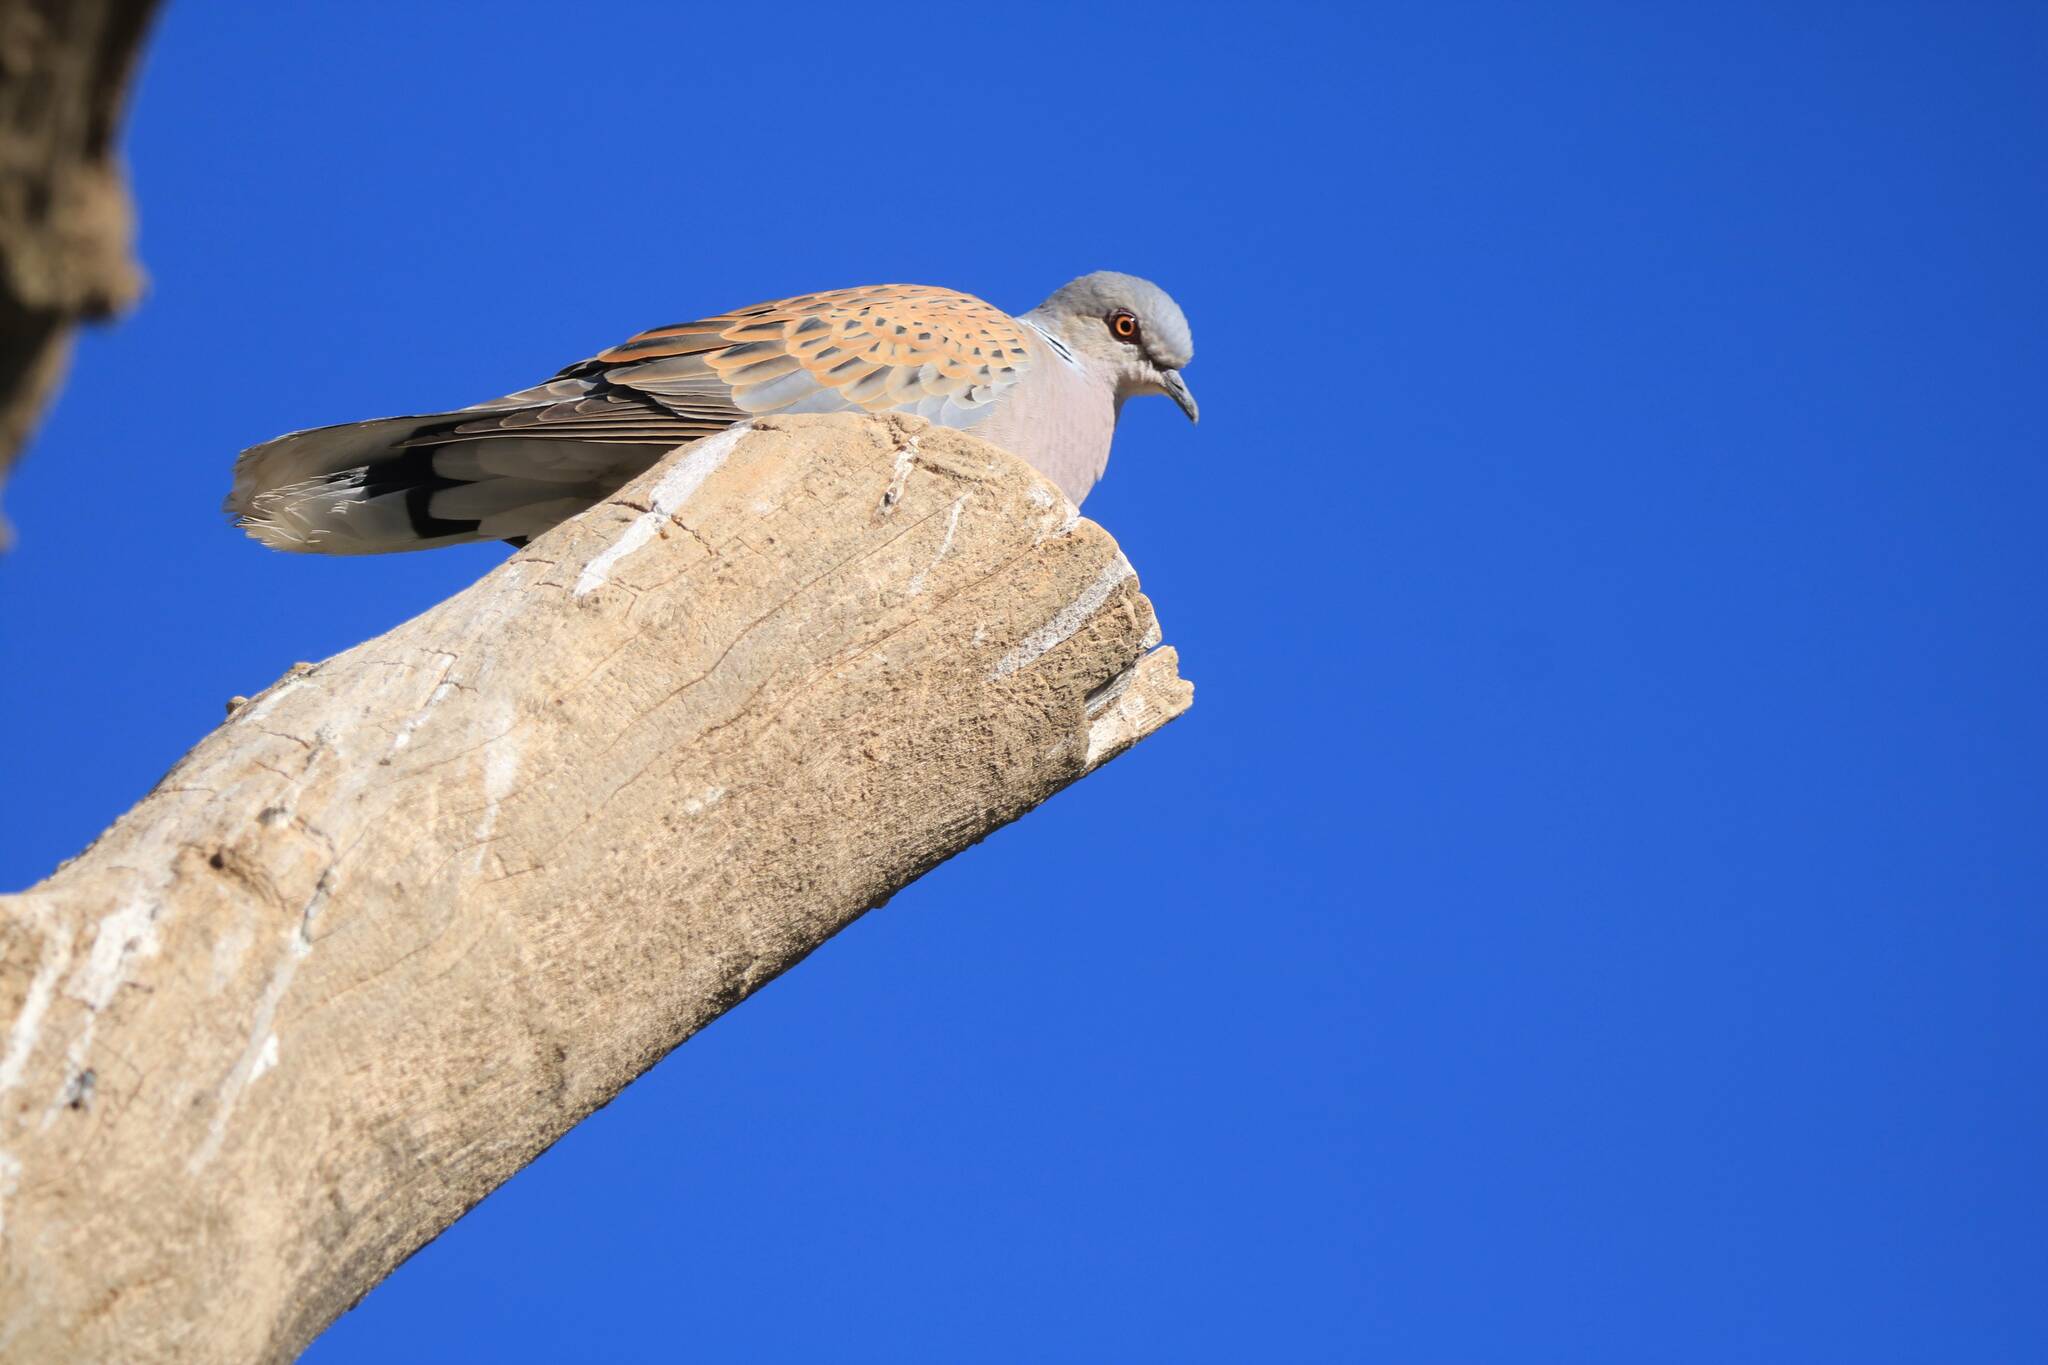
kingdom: Animalia
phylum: Chordata
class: Aves
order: Columbiformes
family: Columbidae
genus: Streptopelia
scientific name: Streptopelia turtur
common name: European turtle dove
